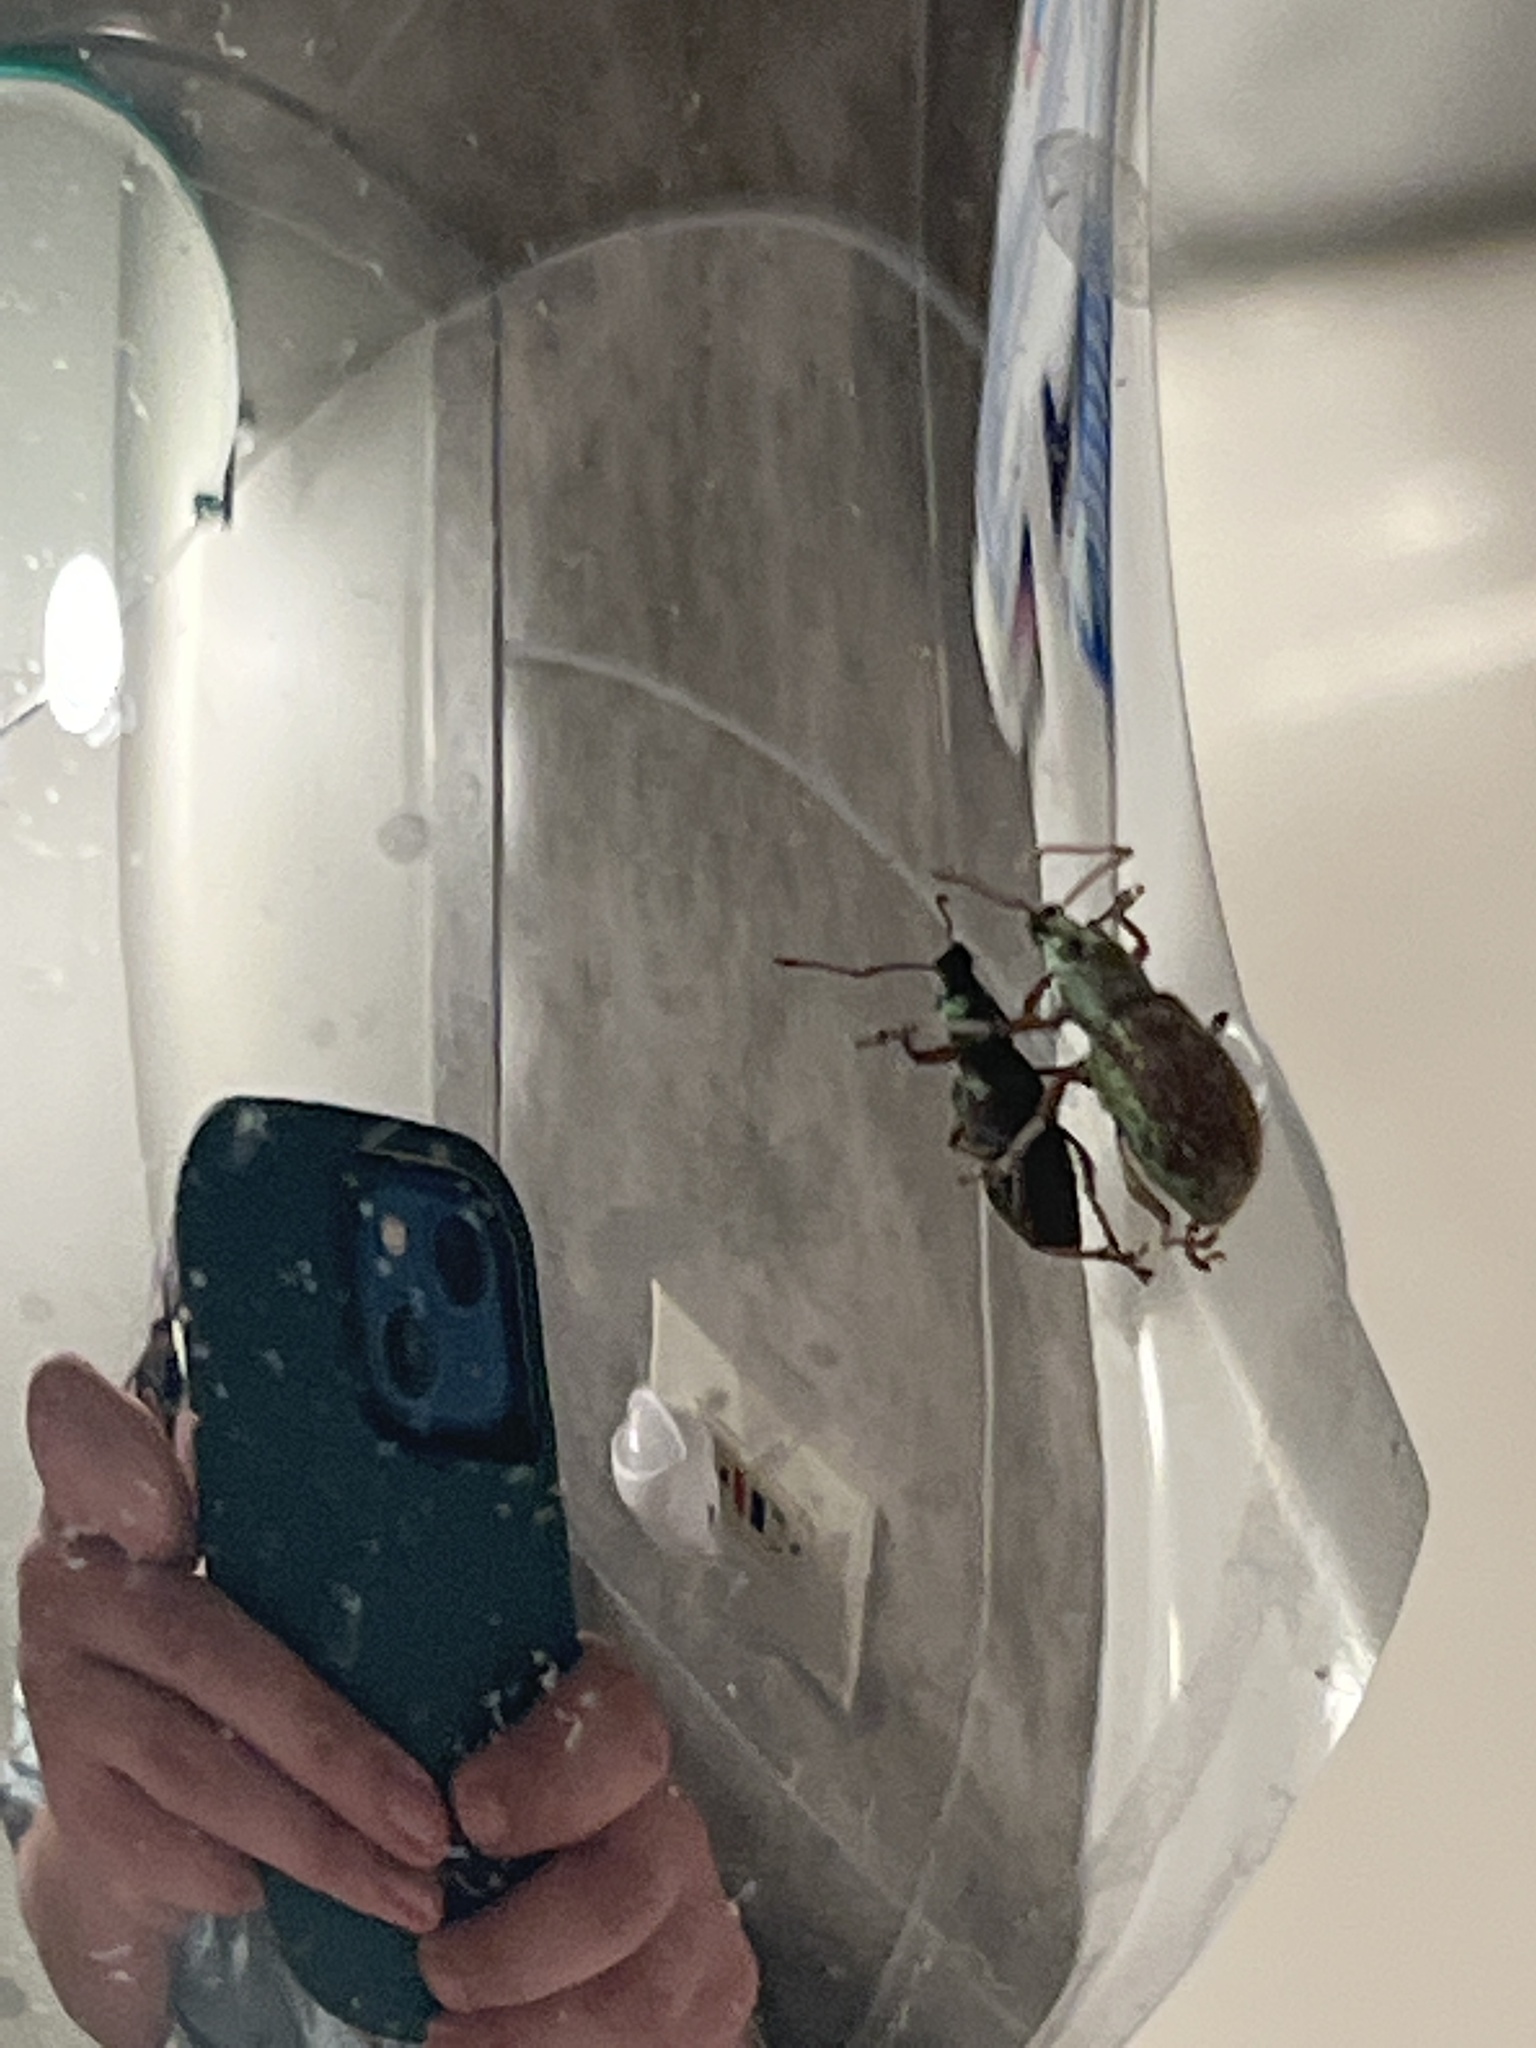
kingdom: Animalia
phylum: Arthropoda
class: Insecta
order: Coleoptera
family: Curculionidae
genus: Cyrtepistomus
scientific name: Cyrtepistomus castaneus
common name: Weevil
